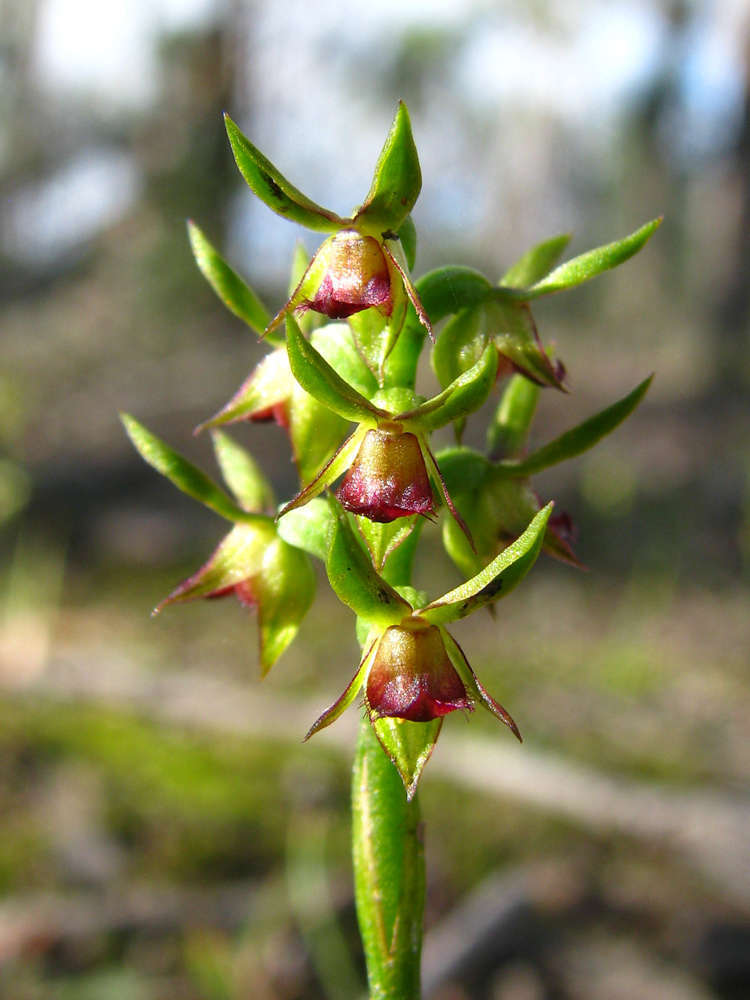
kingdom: Plantae
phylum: Tracheophyta
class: Liliopsida
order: Asparagales
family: Orchidaceae
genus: Genoplesium
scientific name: Genoplesium archeri
